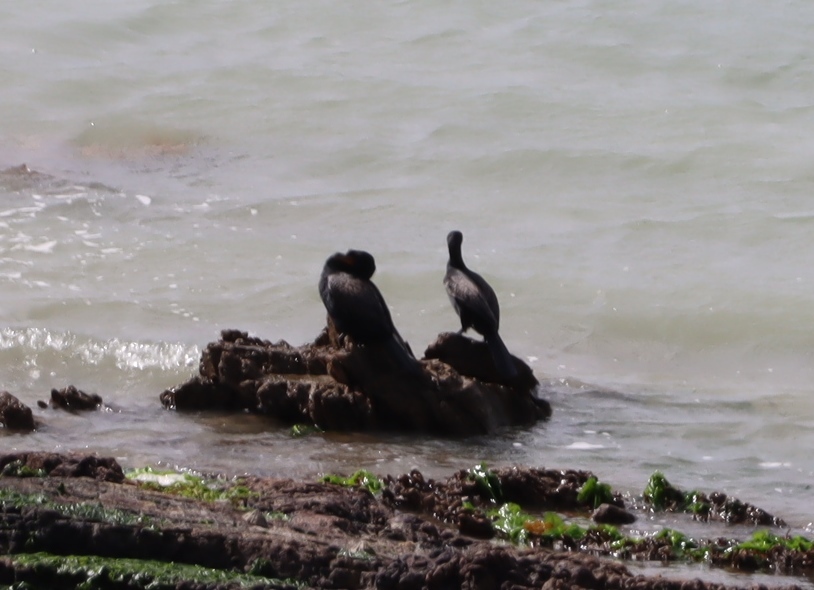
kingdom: Animalia
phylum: Chordata
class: Aves
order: Suliformes
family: Phalacrocoracidae
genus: Microcarbo
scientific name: Microcarbo africanus
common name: Long-tailed cormorant
